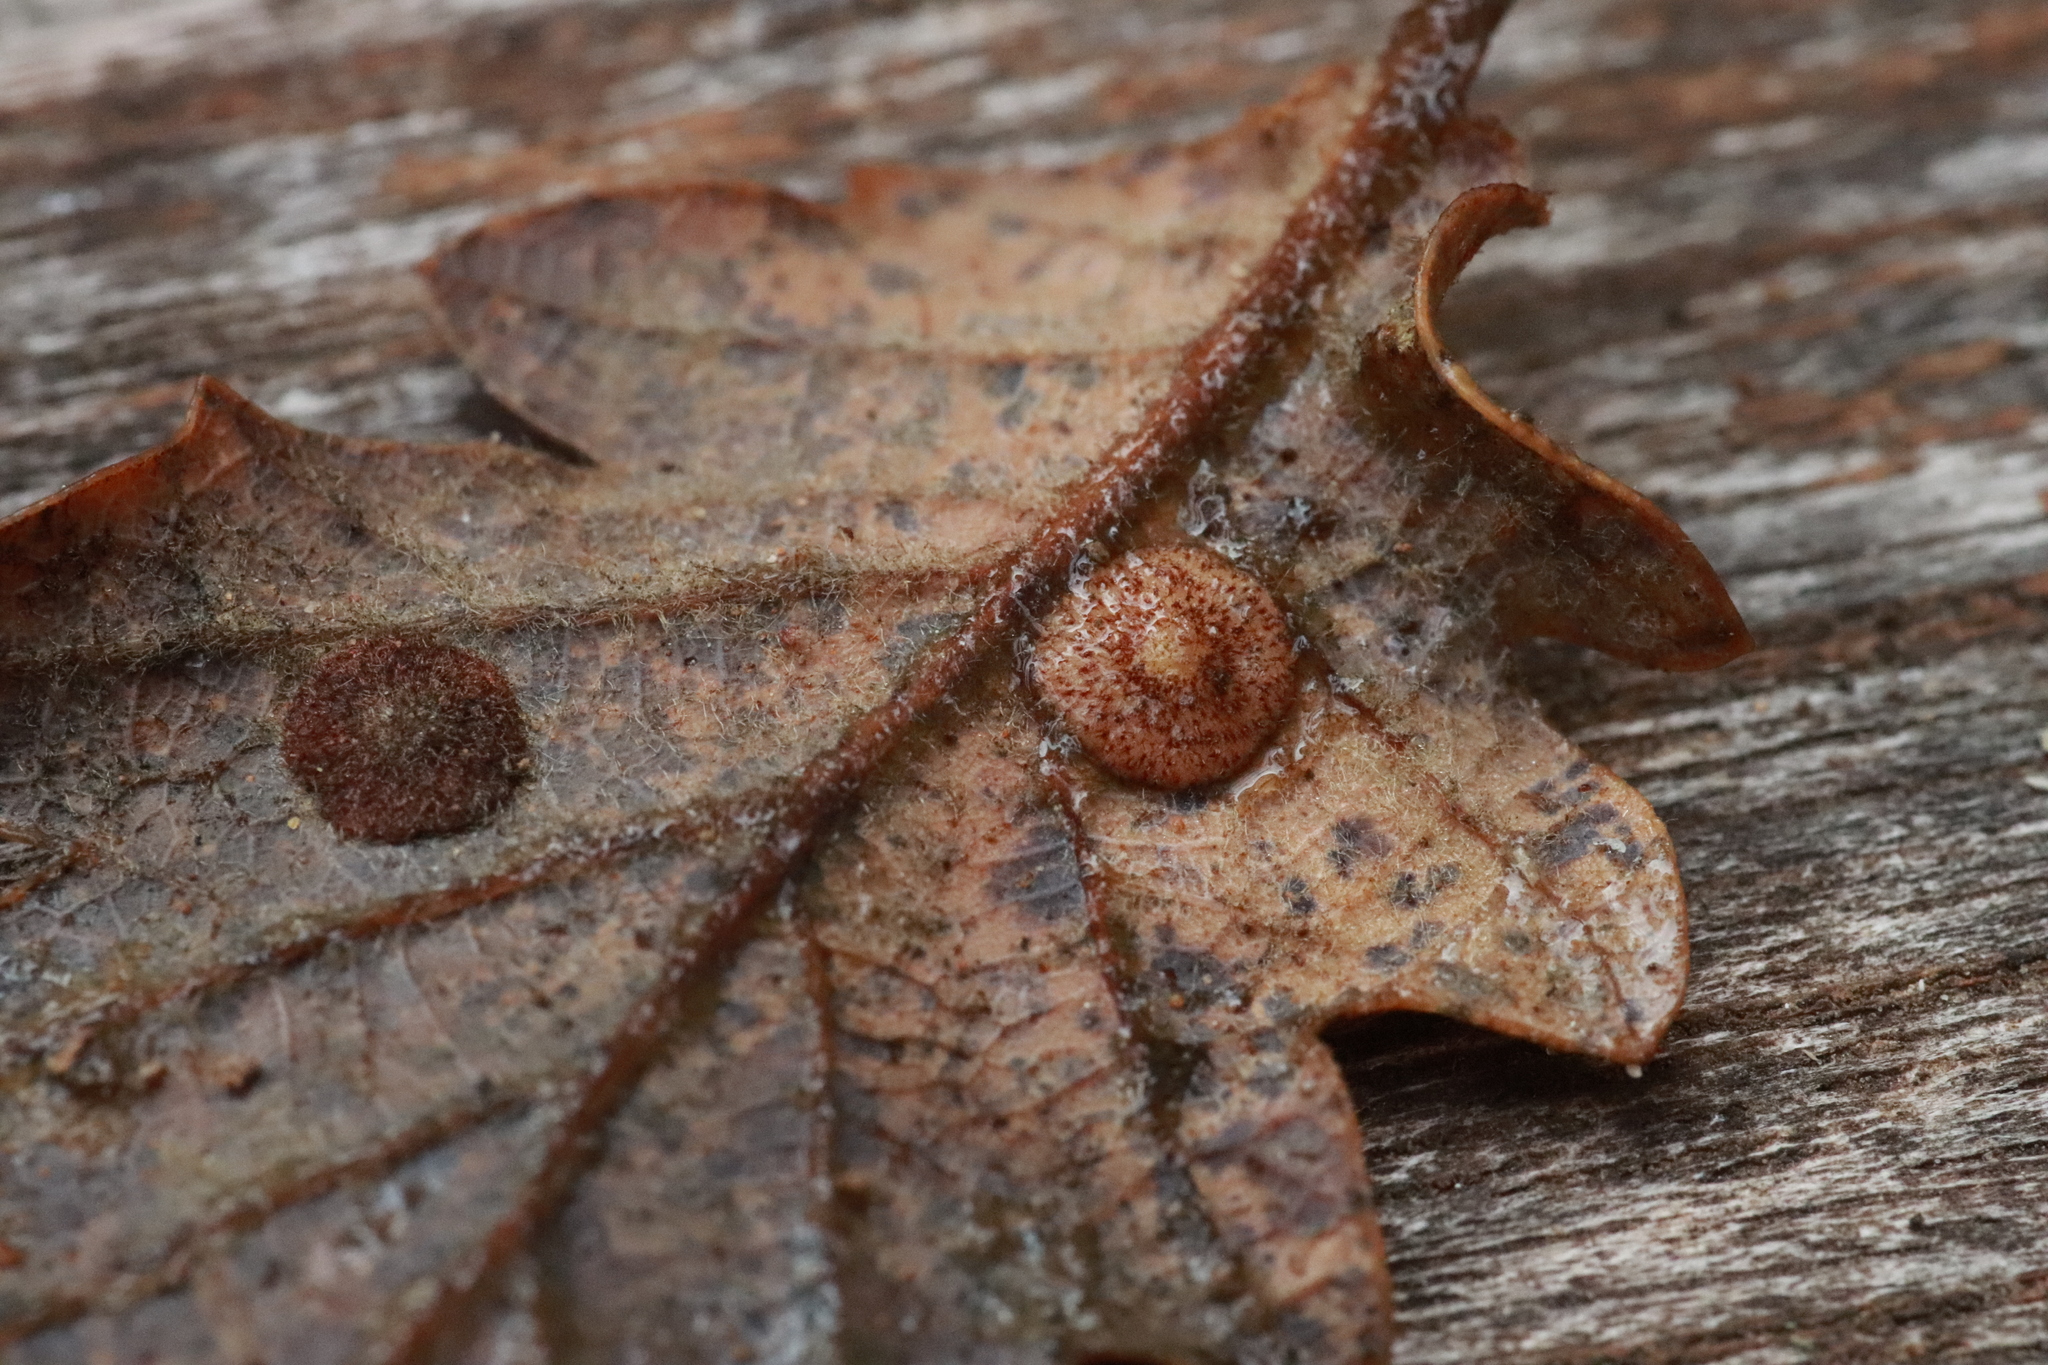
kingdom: Animalia
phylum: Arthropoda
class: Insecta
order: Hymenoptera
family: Cynipidae
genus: Neuroterus
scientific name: Neuroterus quercusbaccarum
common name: Common spangle gall
